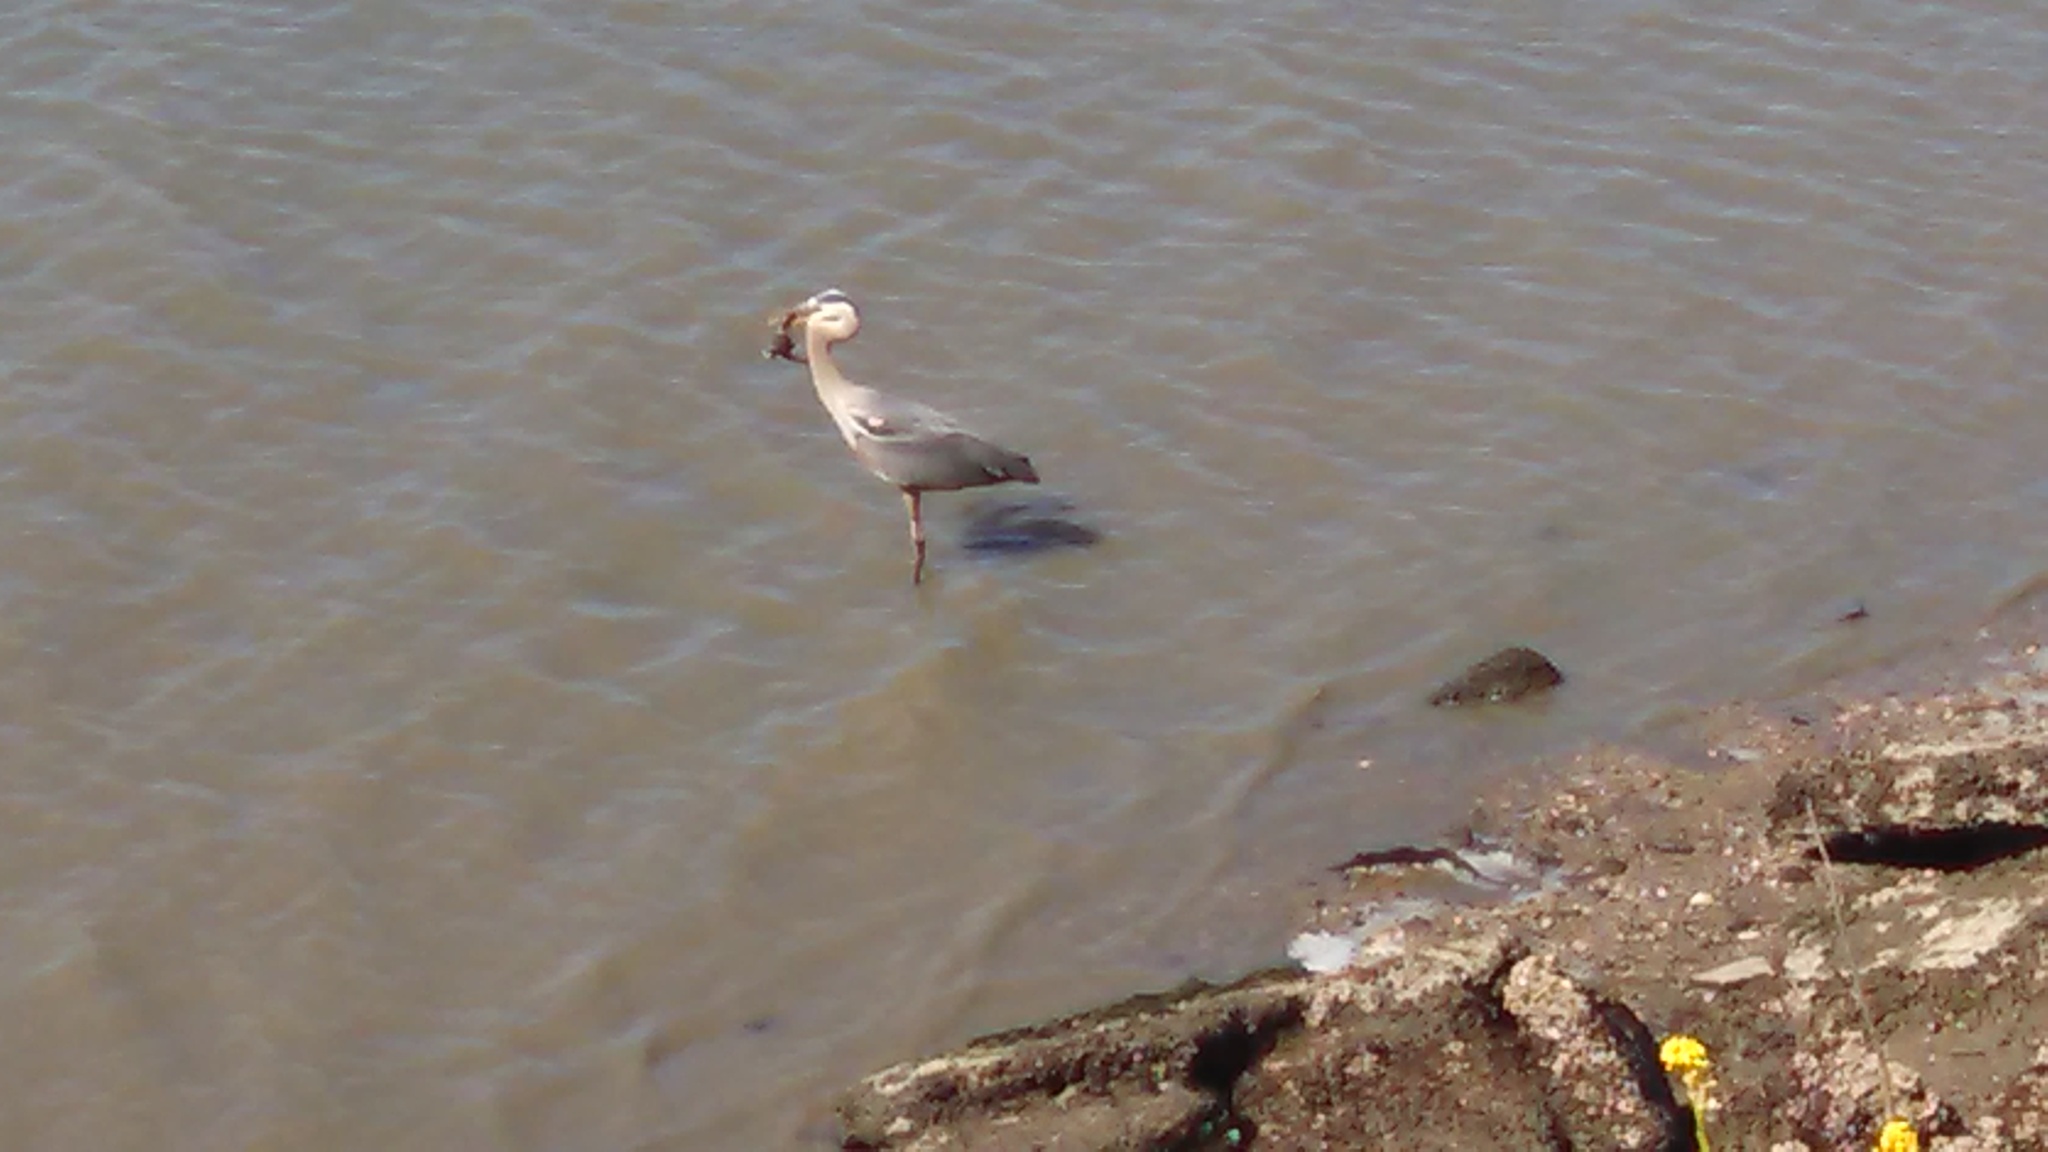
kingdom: Animalia
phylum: Chordata
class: Aves
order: Pelecaniformes
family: Ardeidae
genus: Ardea
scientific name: Ardea herodias
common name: Great blue heron
